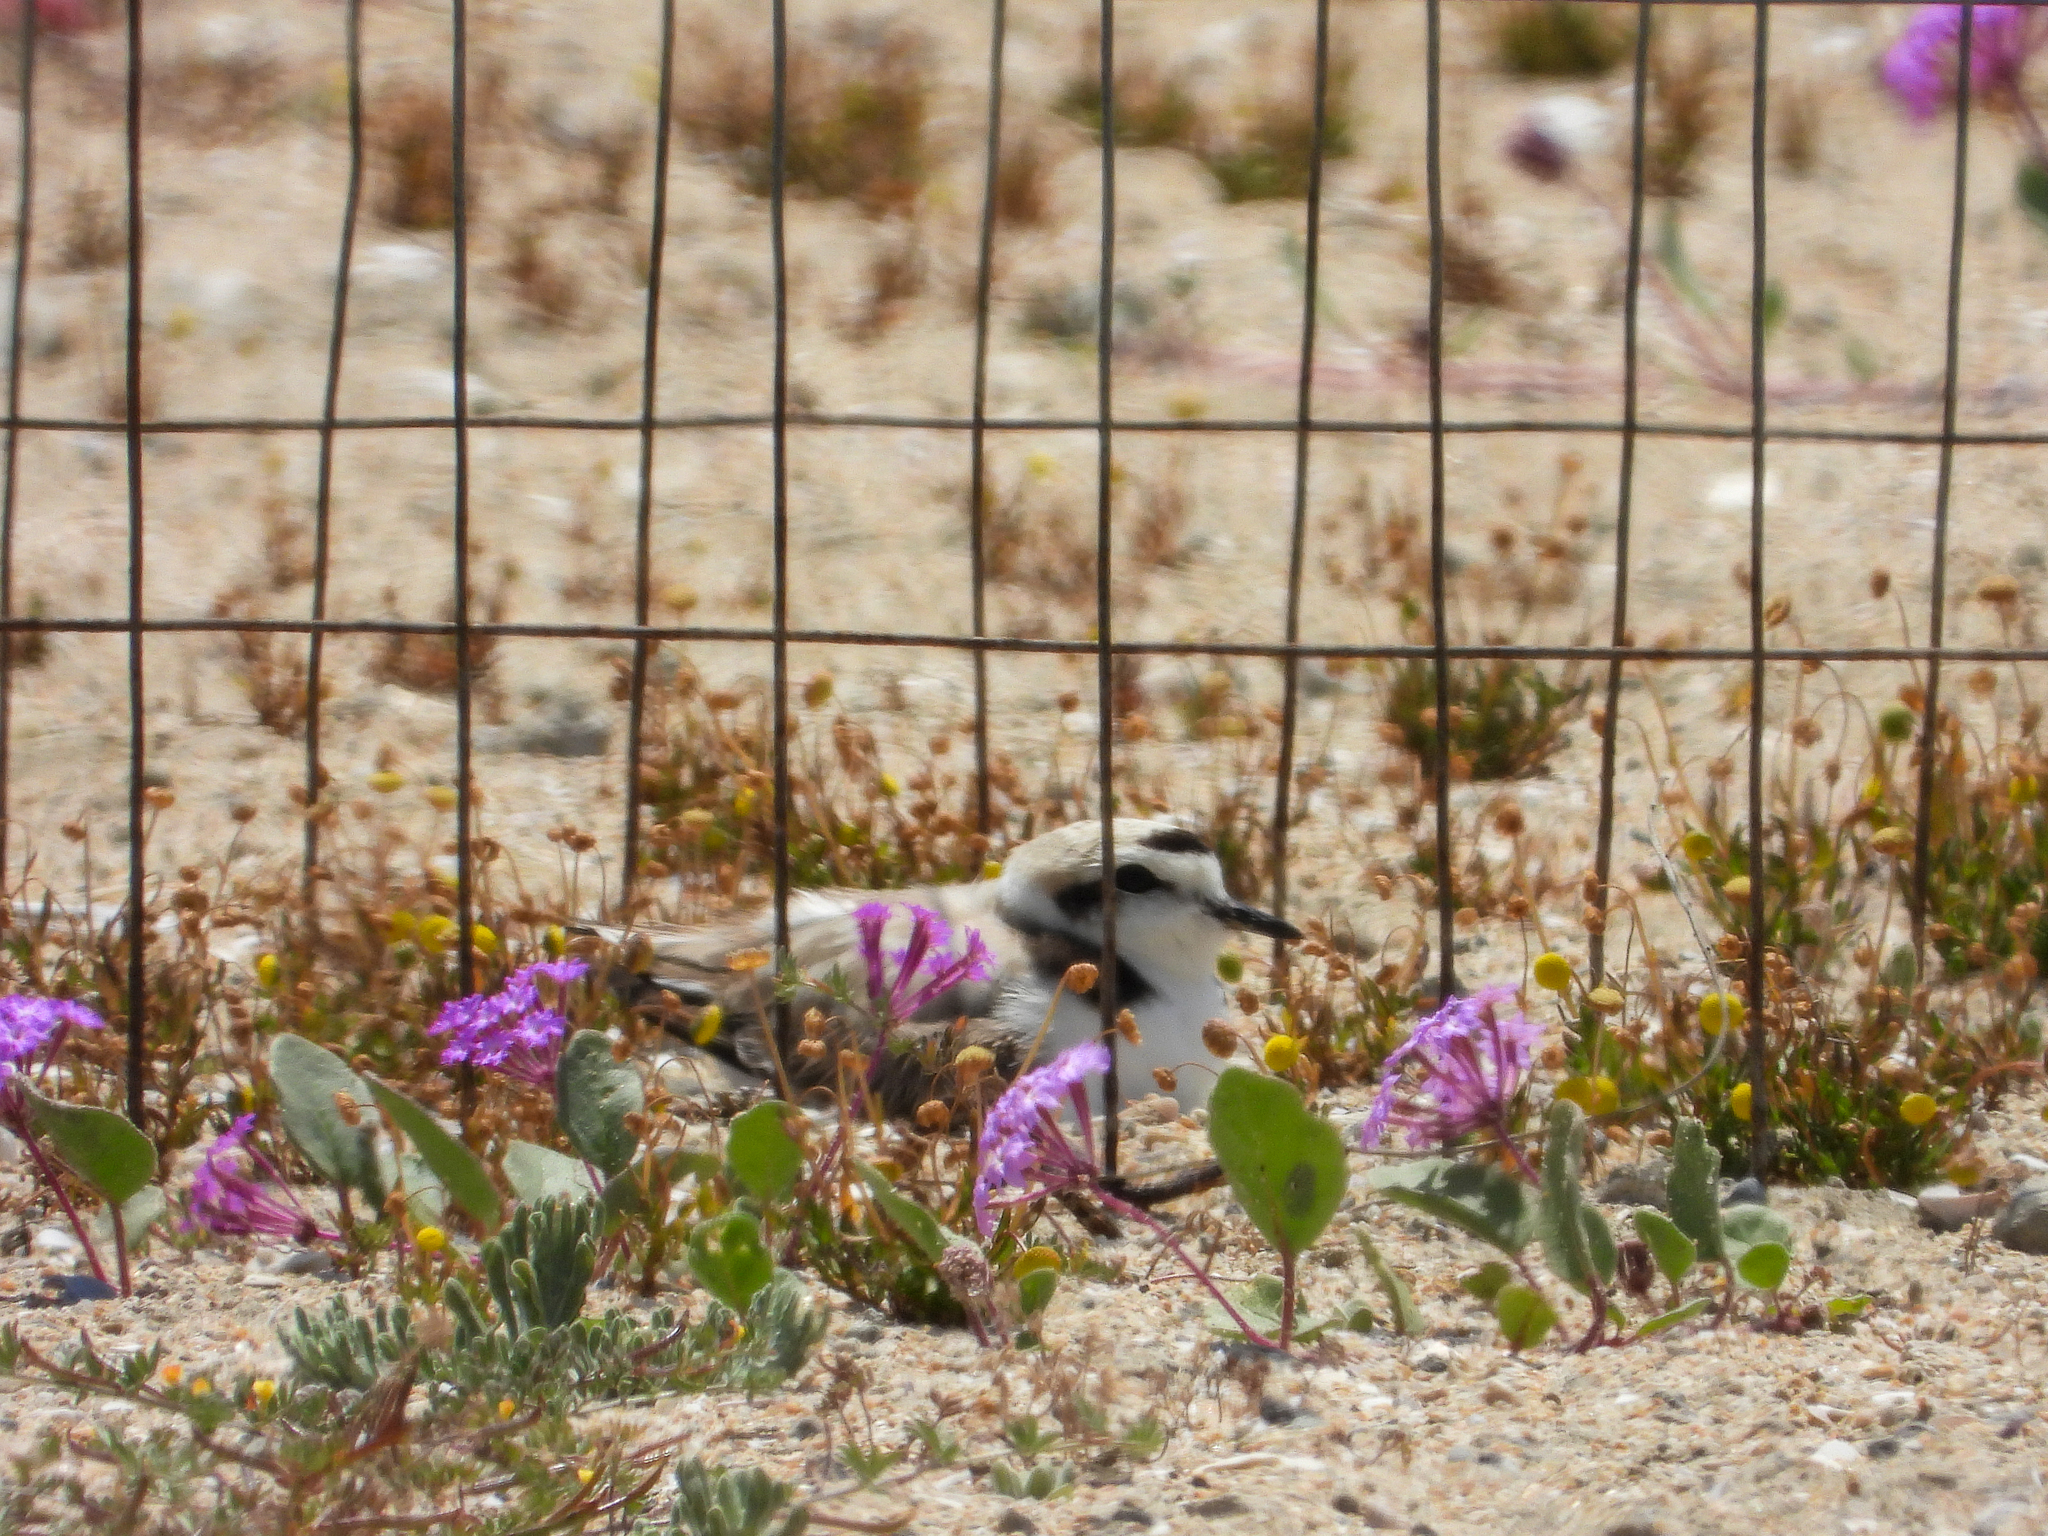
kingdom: Animalia
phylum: Chordata
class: Aves
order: Charadriiformes
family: Charadriidae
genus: Anarhynchus
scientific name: Anarhynchus
